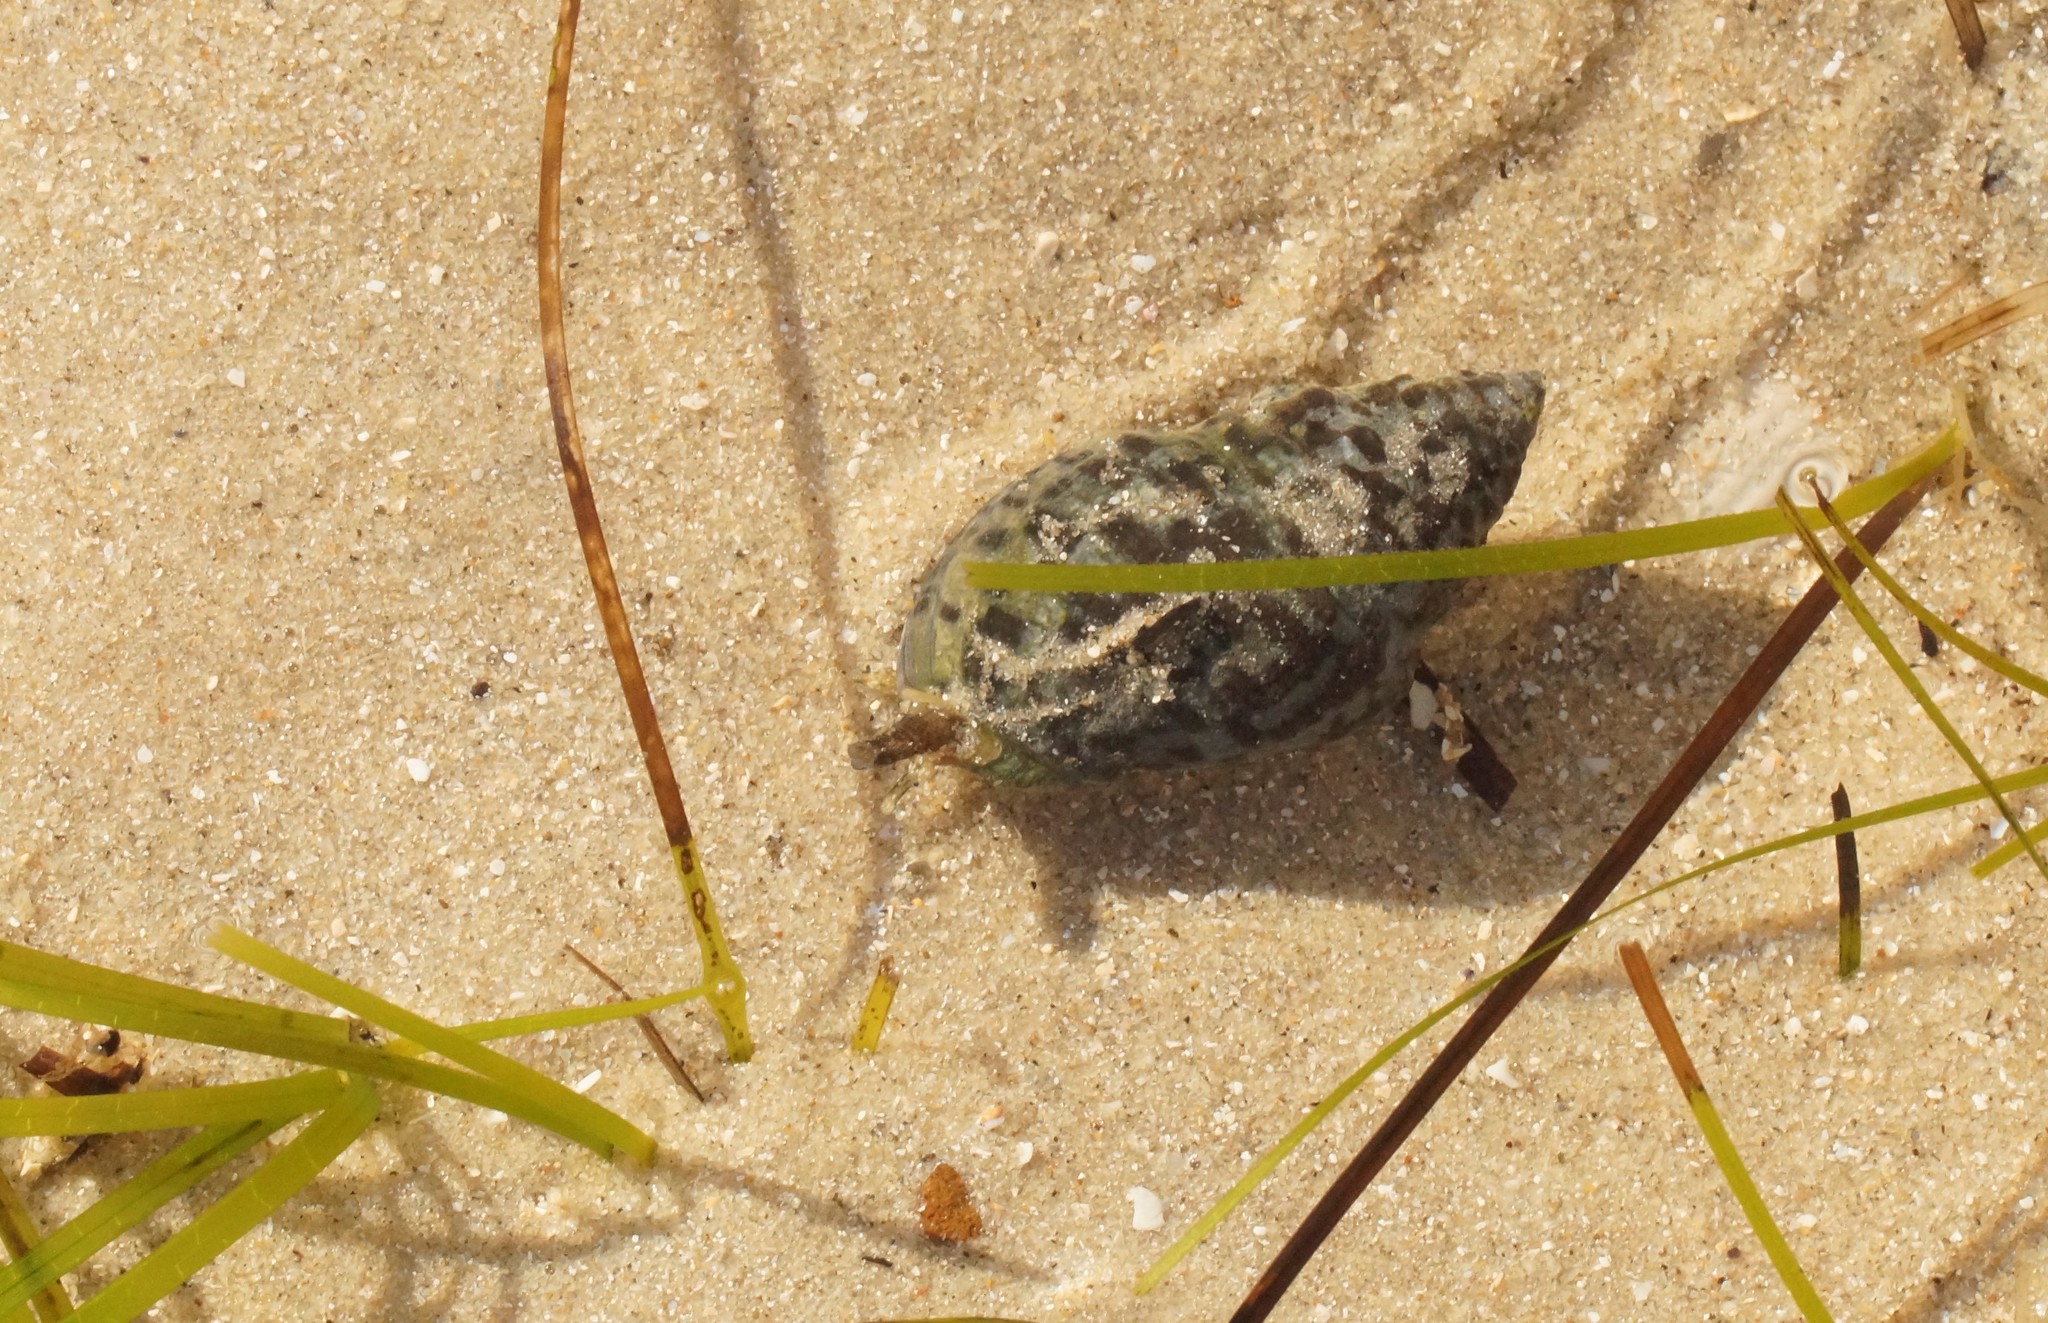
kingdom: Animalia
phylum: Mollusca
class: Gastropoda
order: Neogastropoda
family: Cominellidae
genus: Cominella
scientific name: Cominella lineolata
